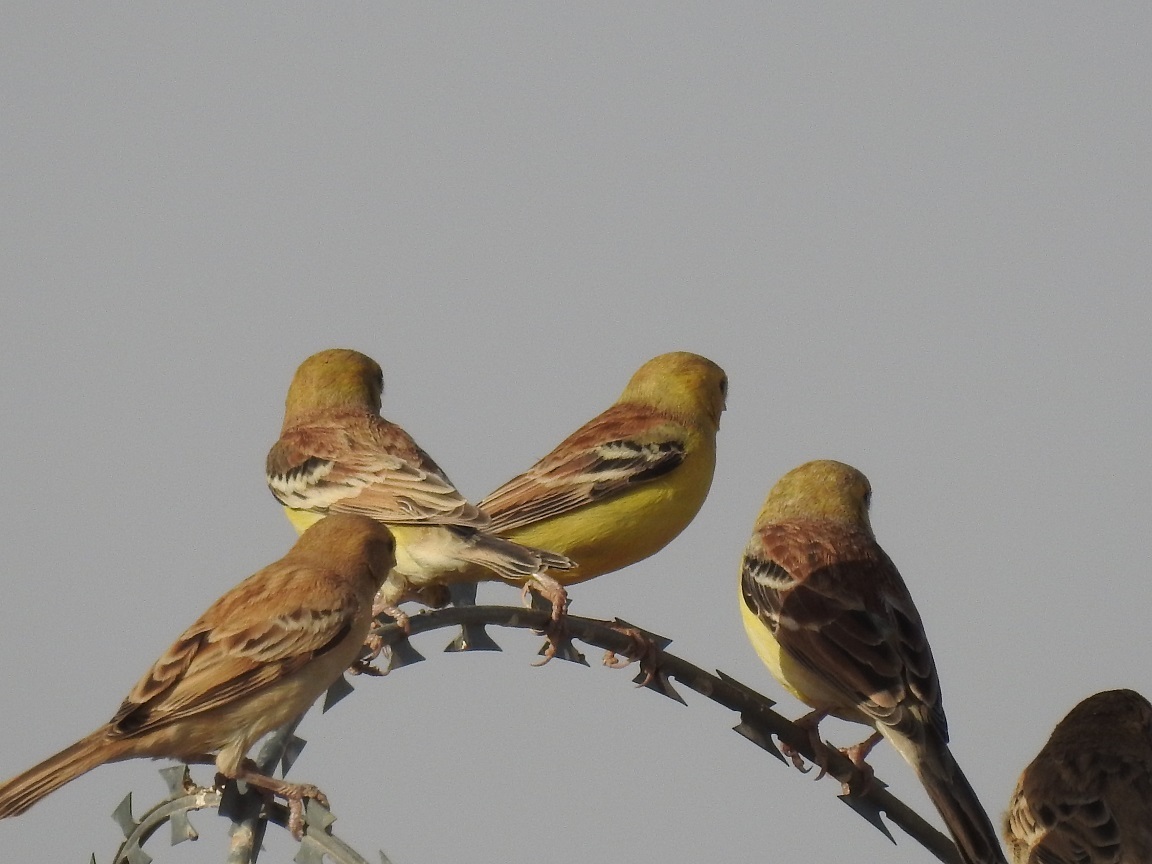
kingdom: Animalia
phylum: Chordata
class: Aves
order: Passeriformes
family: Passeridae
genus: Passer
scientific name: Passer luteus
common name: Sudan golden sparrow
